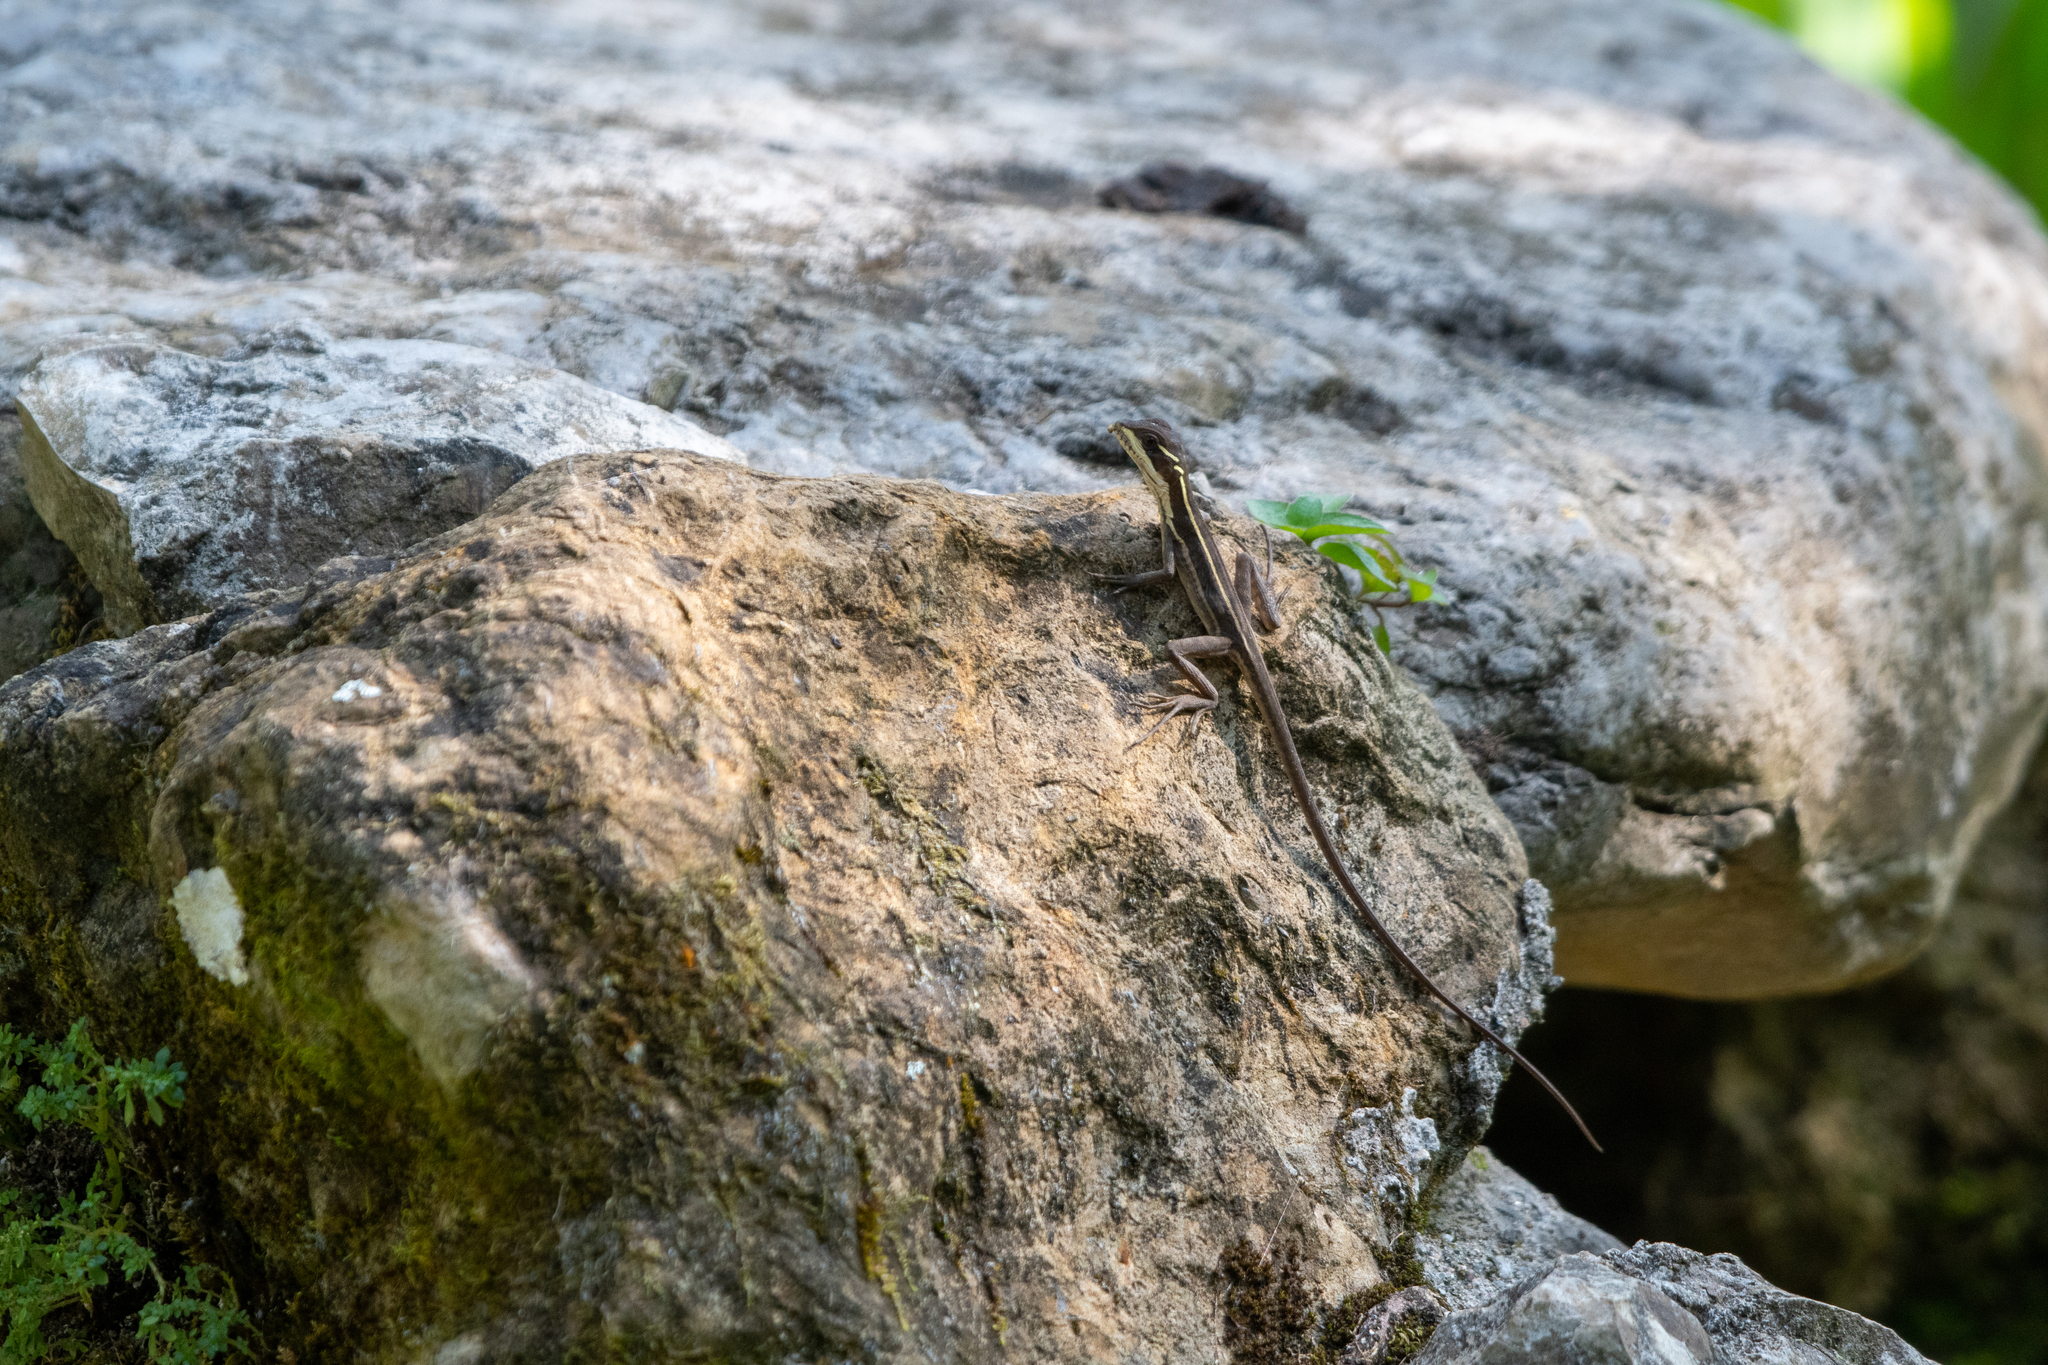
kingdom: Animalia
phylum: Chordata
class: Squamata
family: Corytophanidae
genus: Basiliscus
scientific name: Basiliscus vittatus
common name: Brown basilisk
